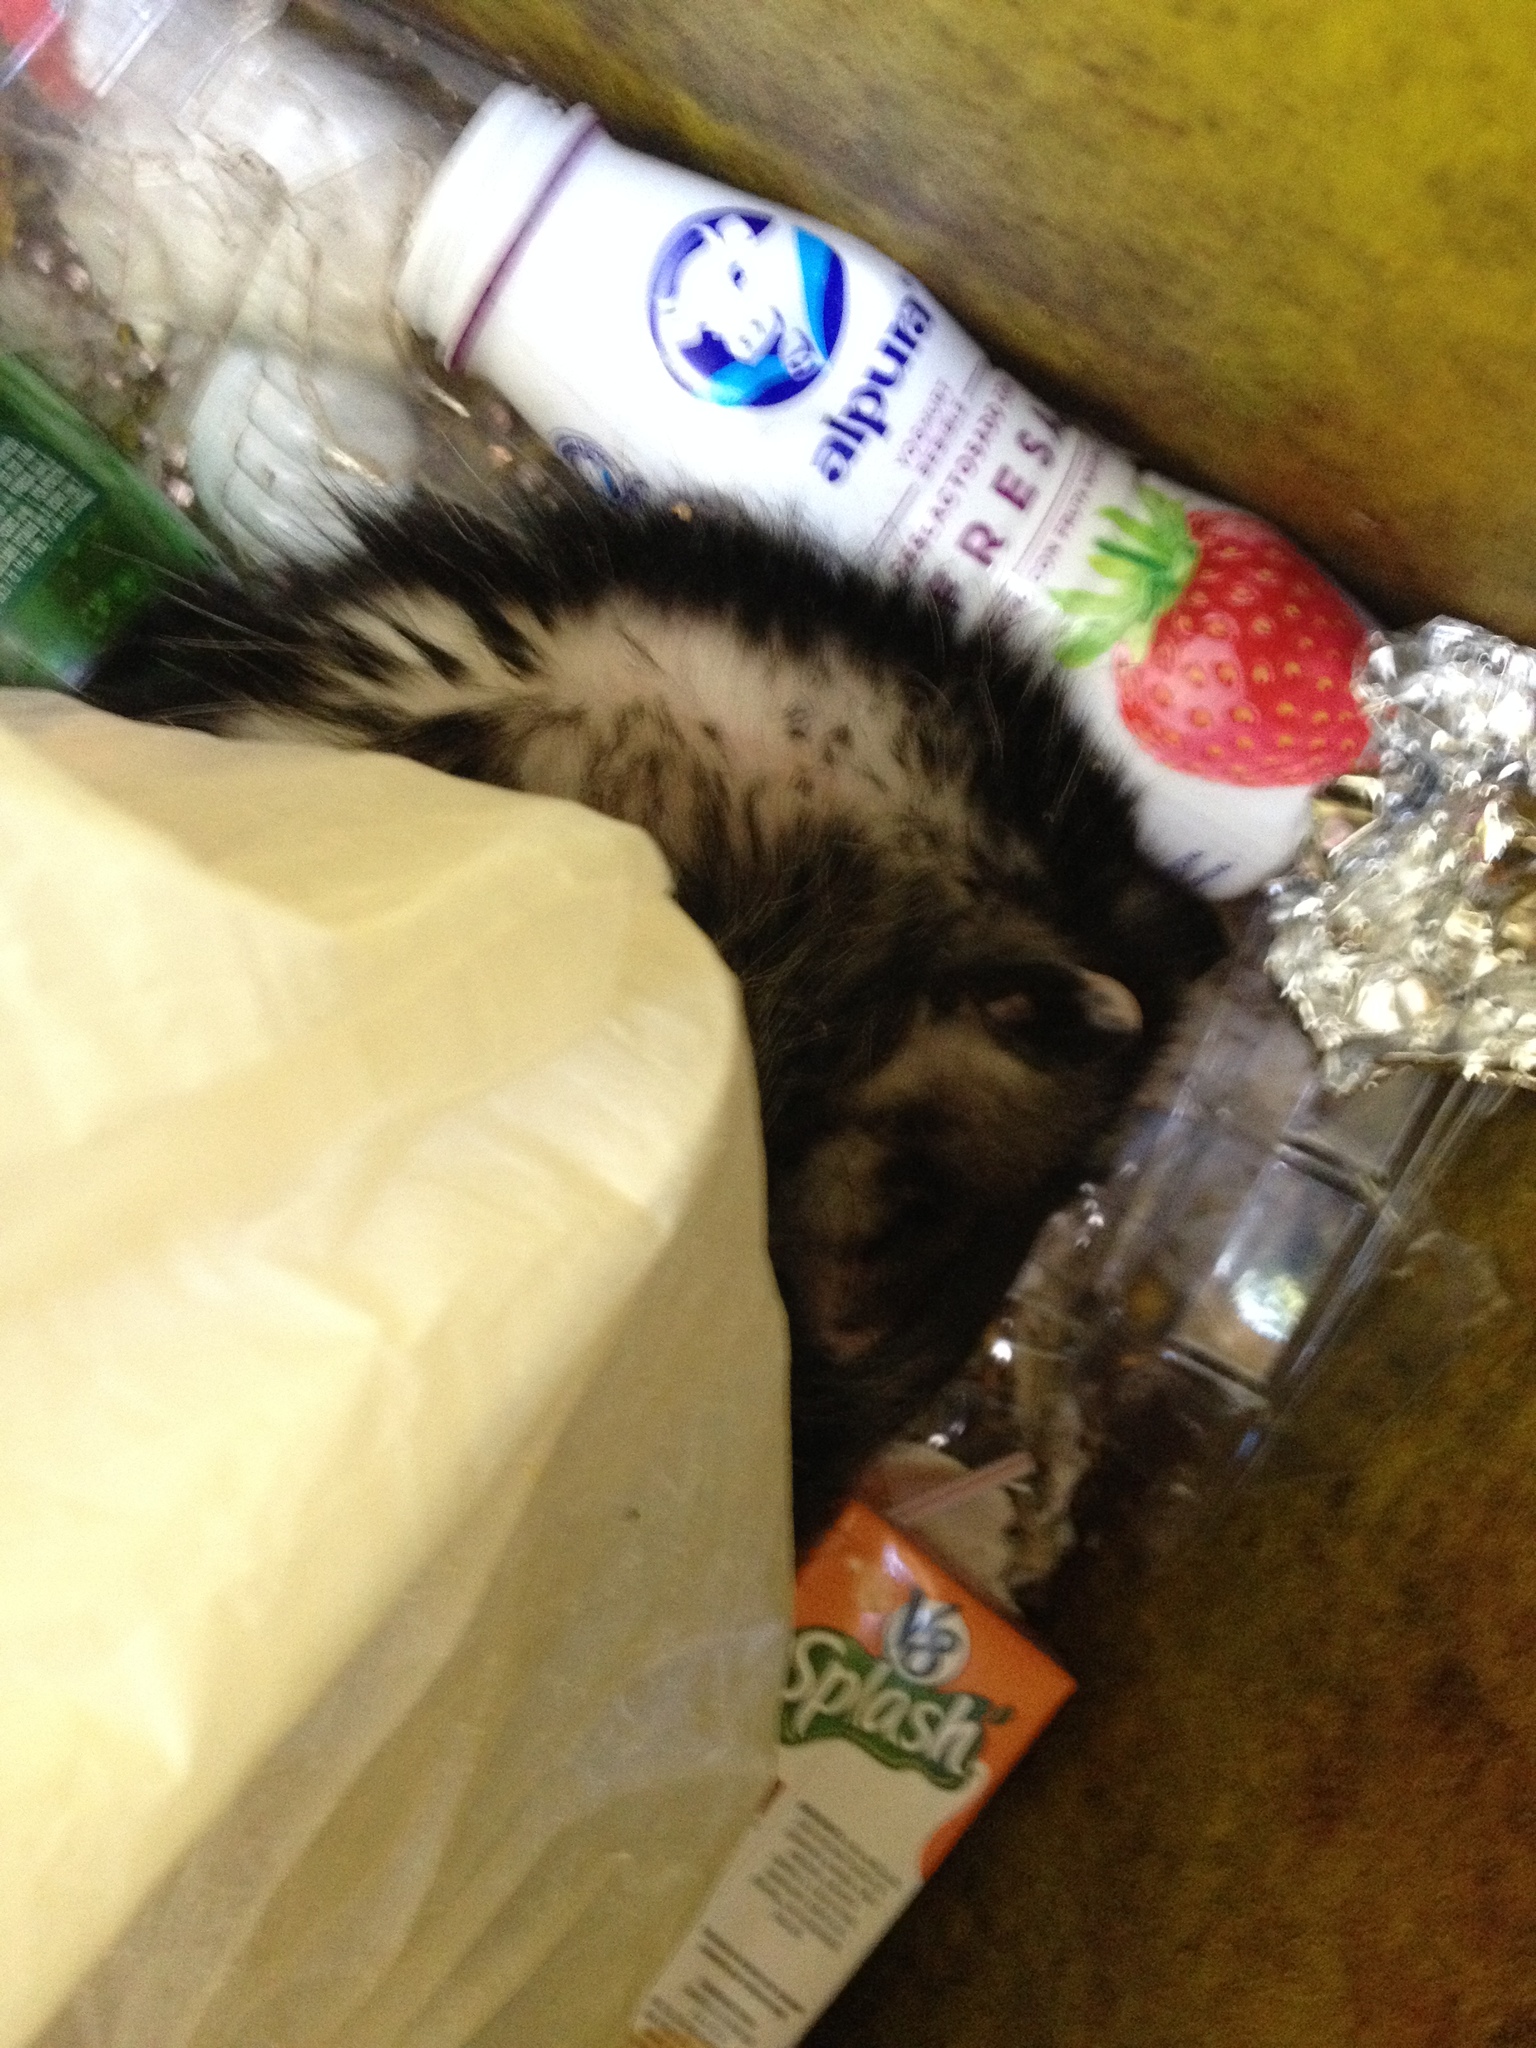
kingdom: Animalia
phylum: Chordata
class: Mammalia
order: Didelphimorphia
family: Didelphidae
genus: Didelphis
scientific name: Didelphis virginiana
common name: Virginia opossum
